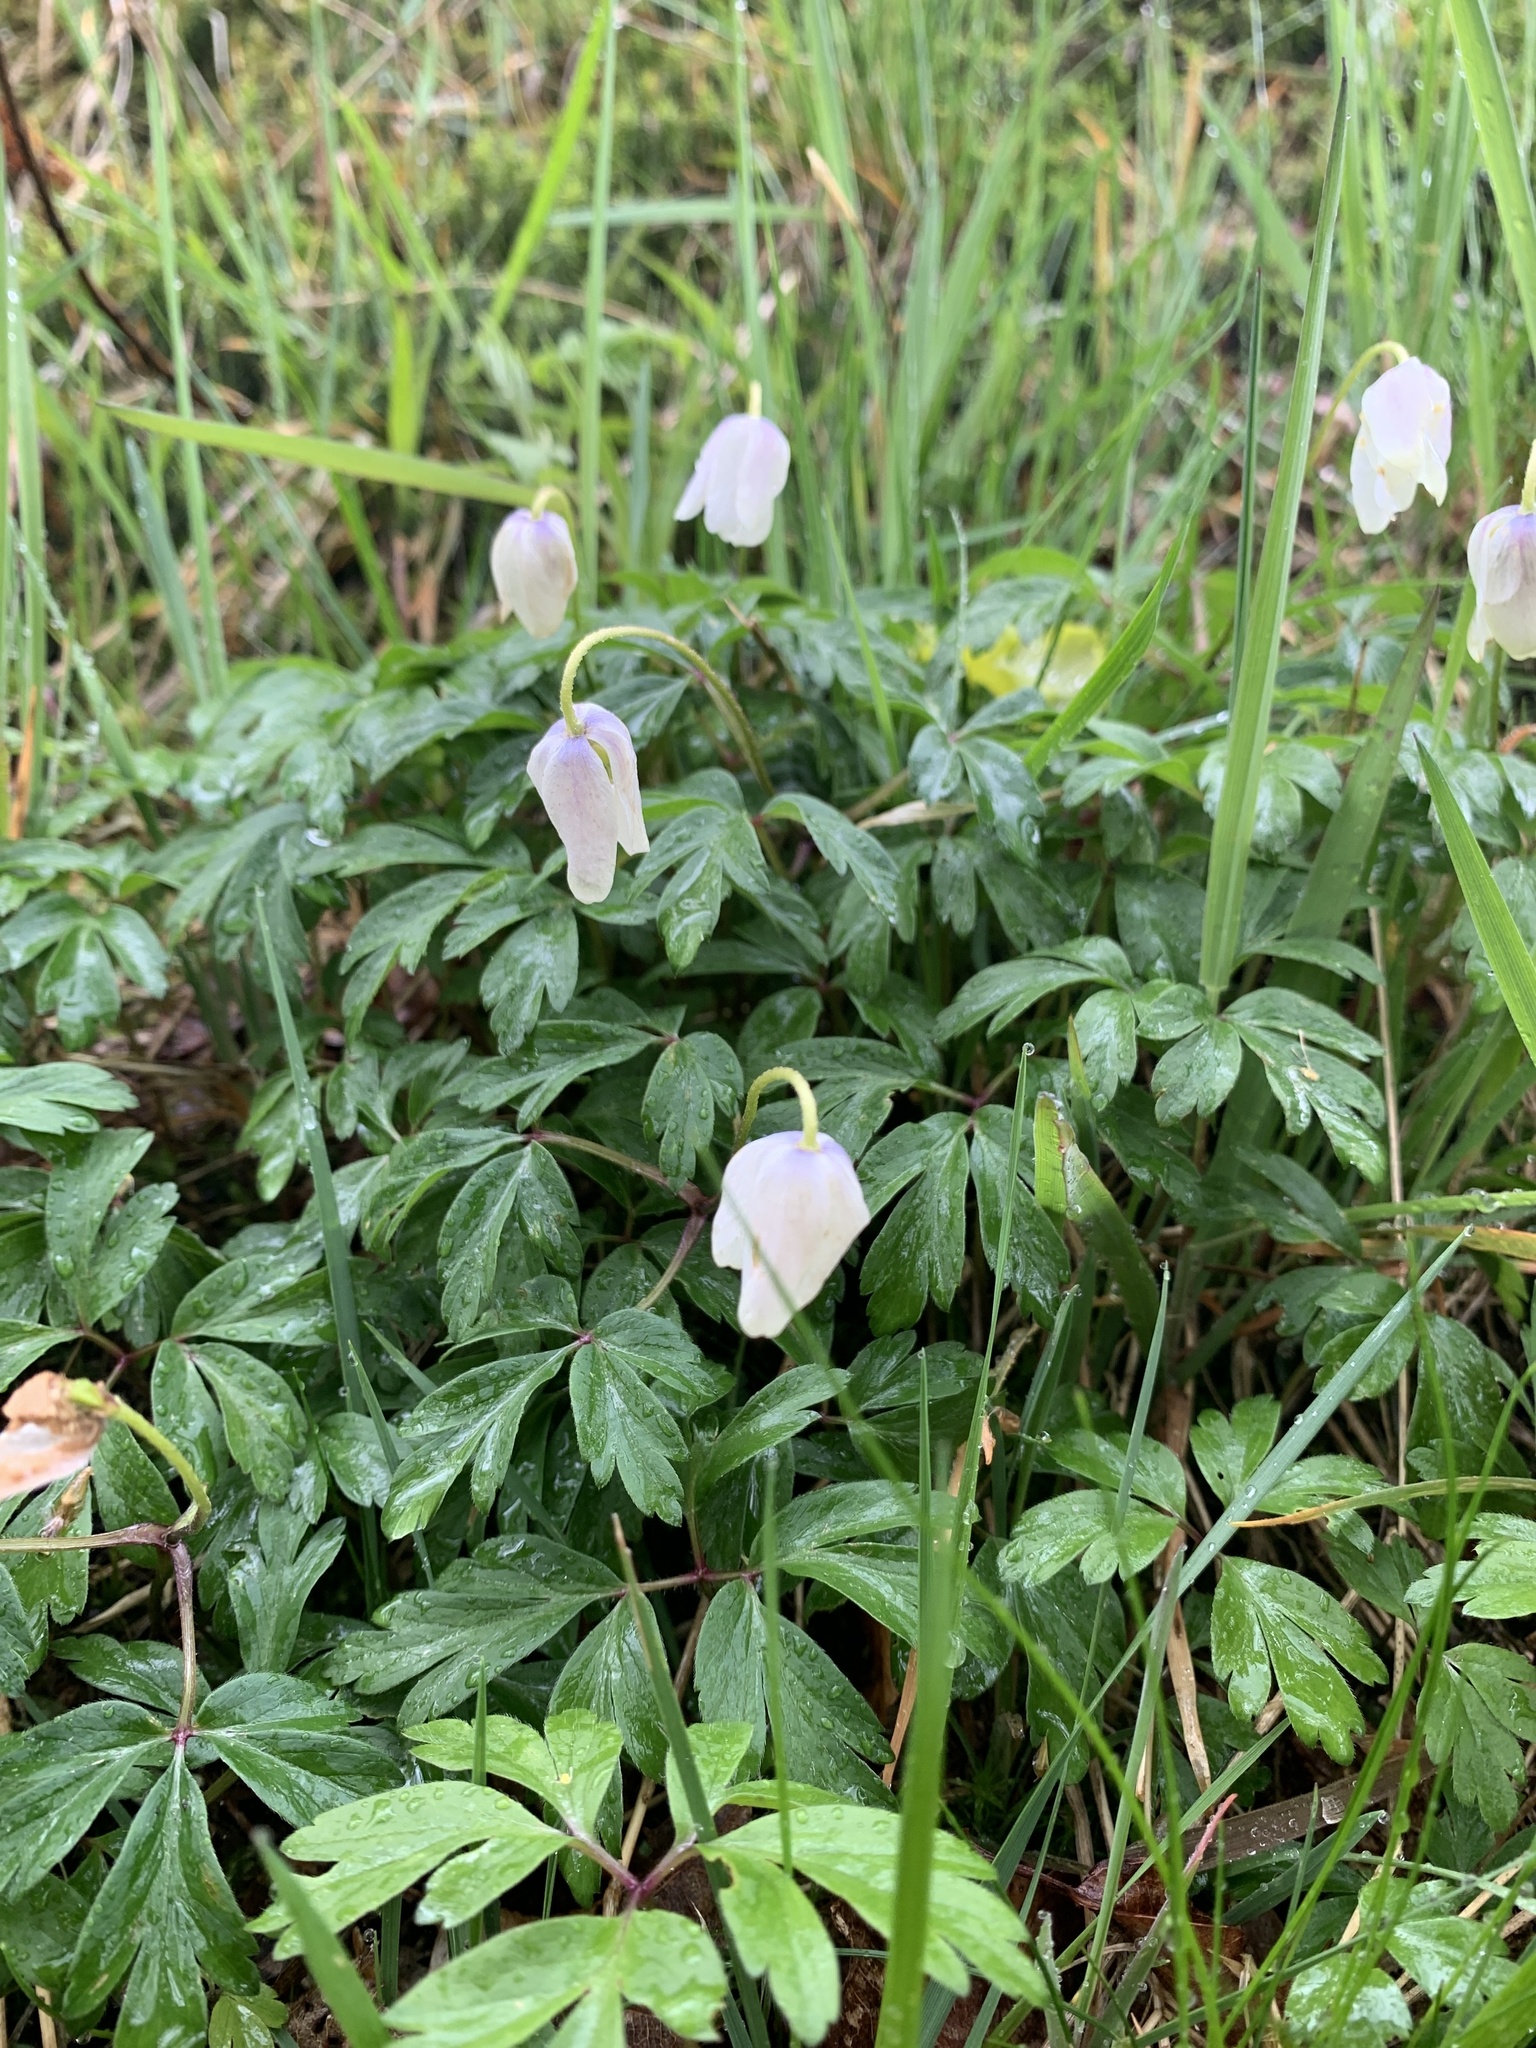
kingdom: Plantae
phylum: Tracheophyta
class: Magnoliopsida
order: Ranunculales
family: Ranunculaceae
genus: Anemone
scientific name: Anemone nemorosa
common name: Wood anemone
